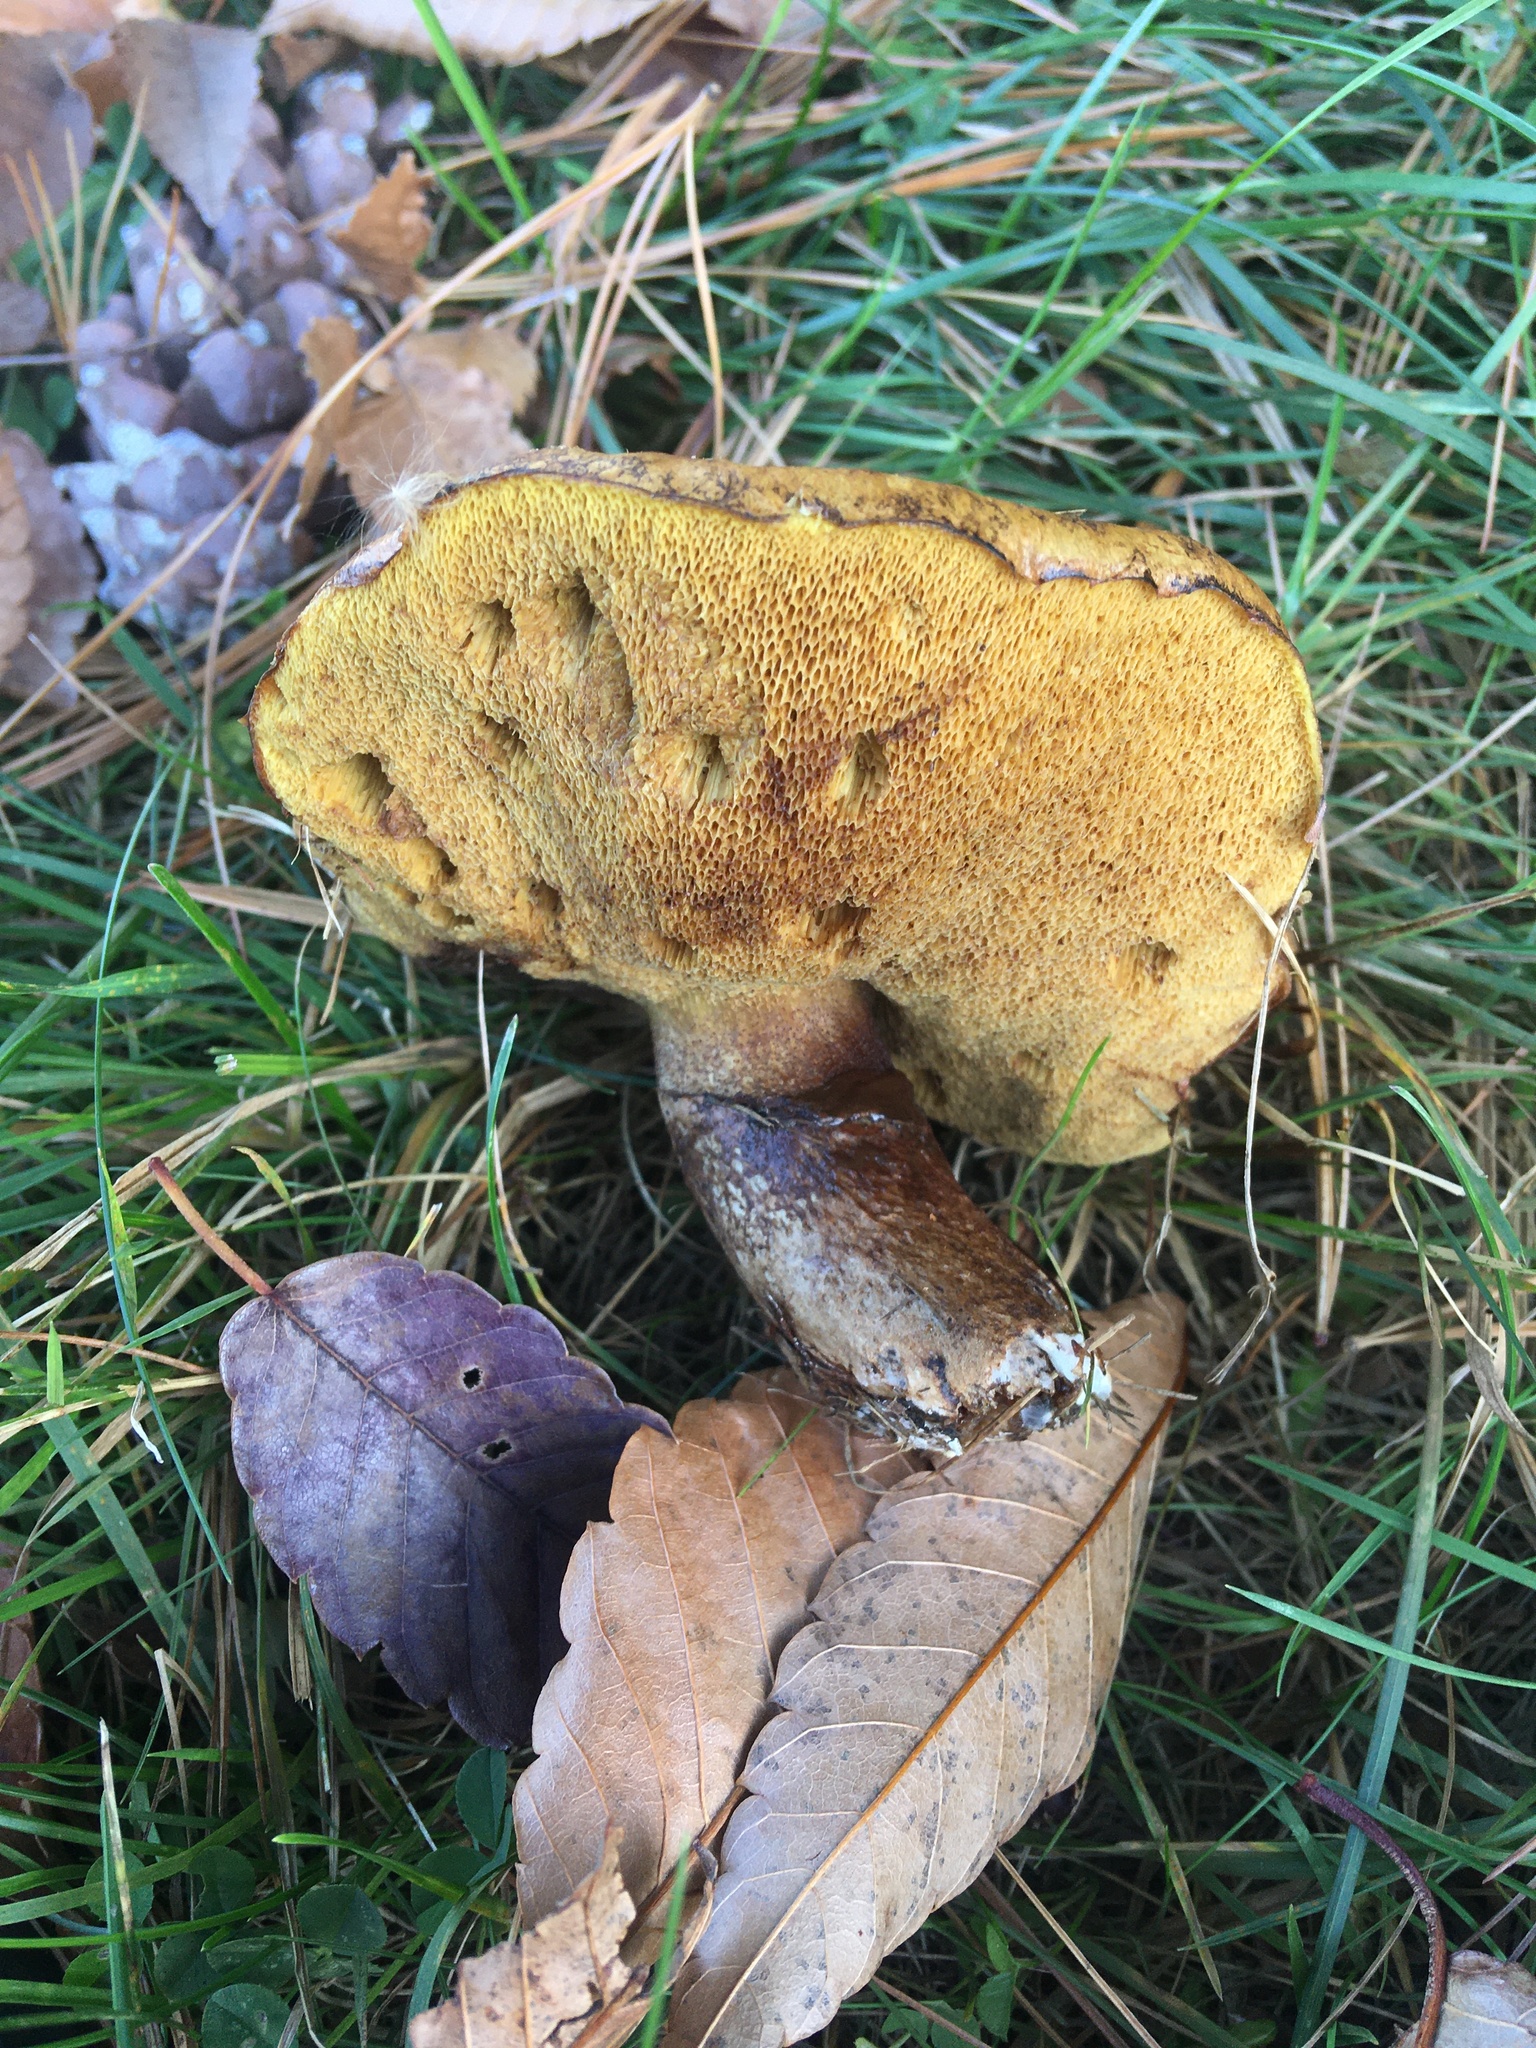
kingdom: Fungi
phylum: Basidiomycota
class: Agaricomycetes
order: Boletales
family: Suillaceae
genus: Suillus
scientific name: Suillus luteus
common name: Slippery jack
